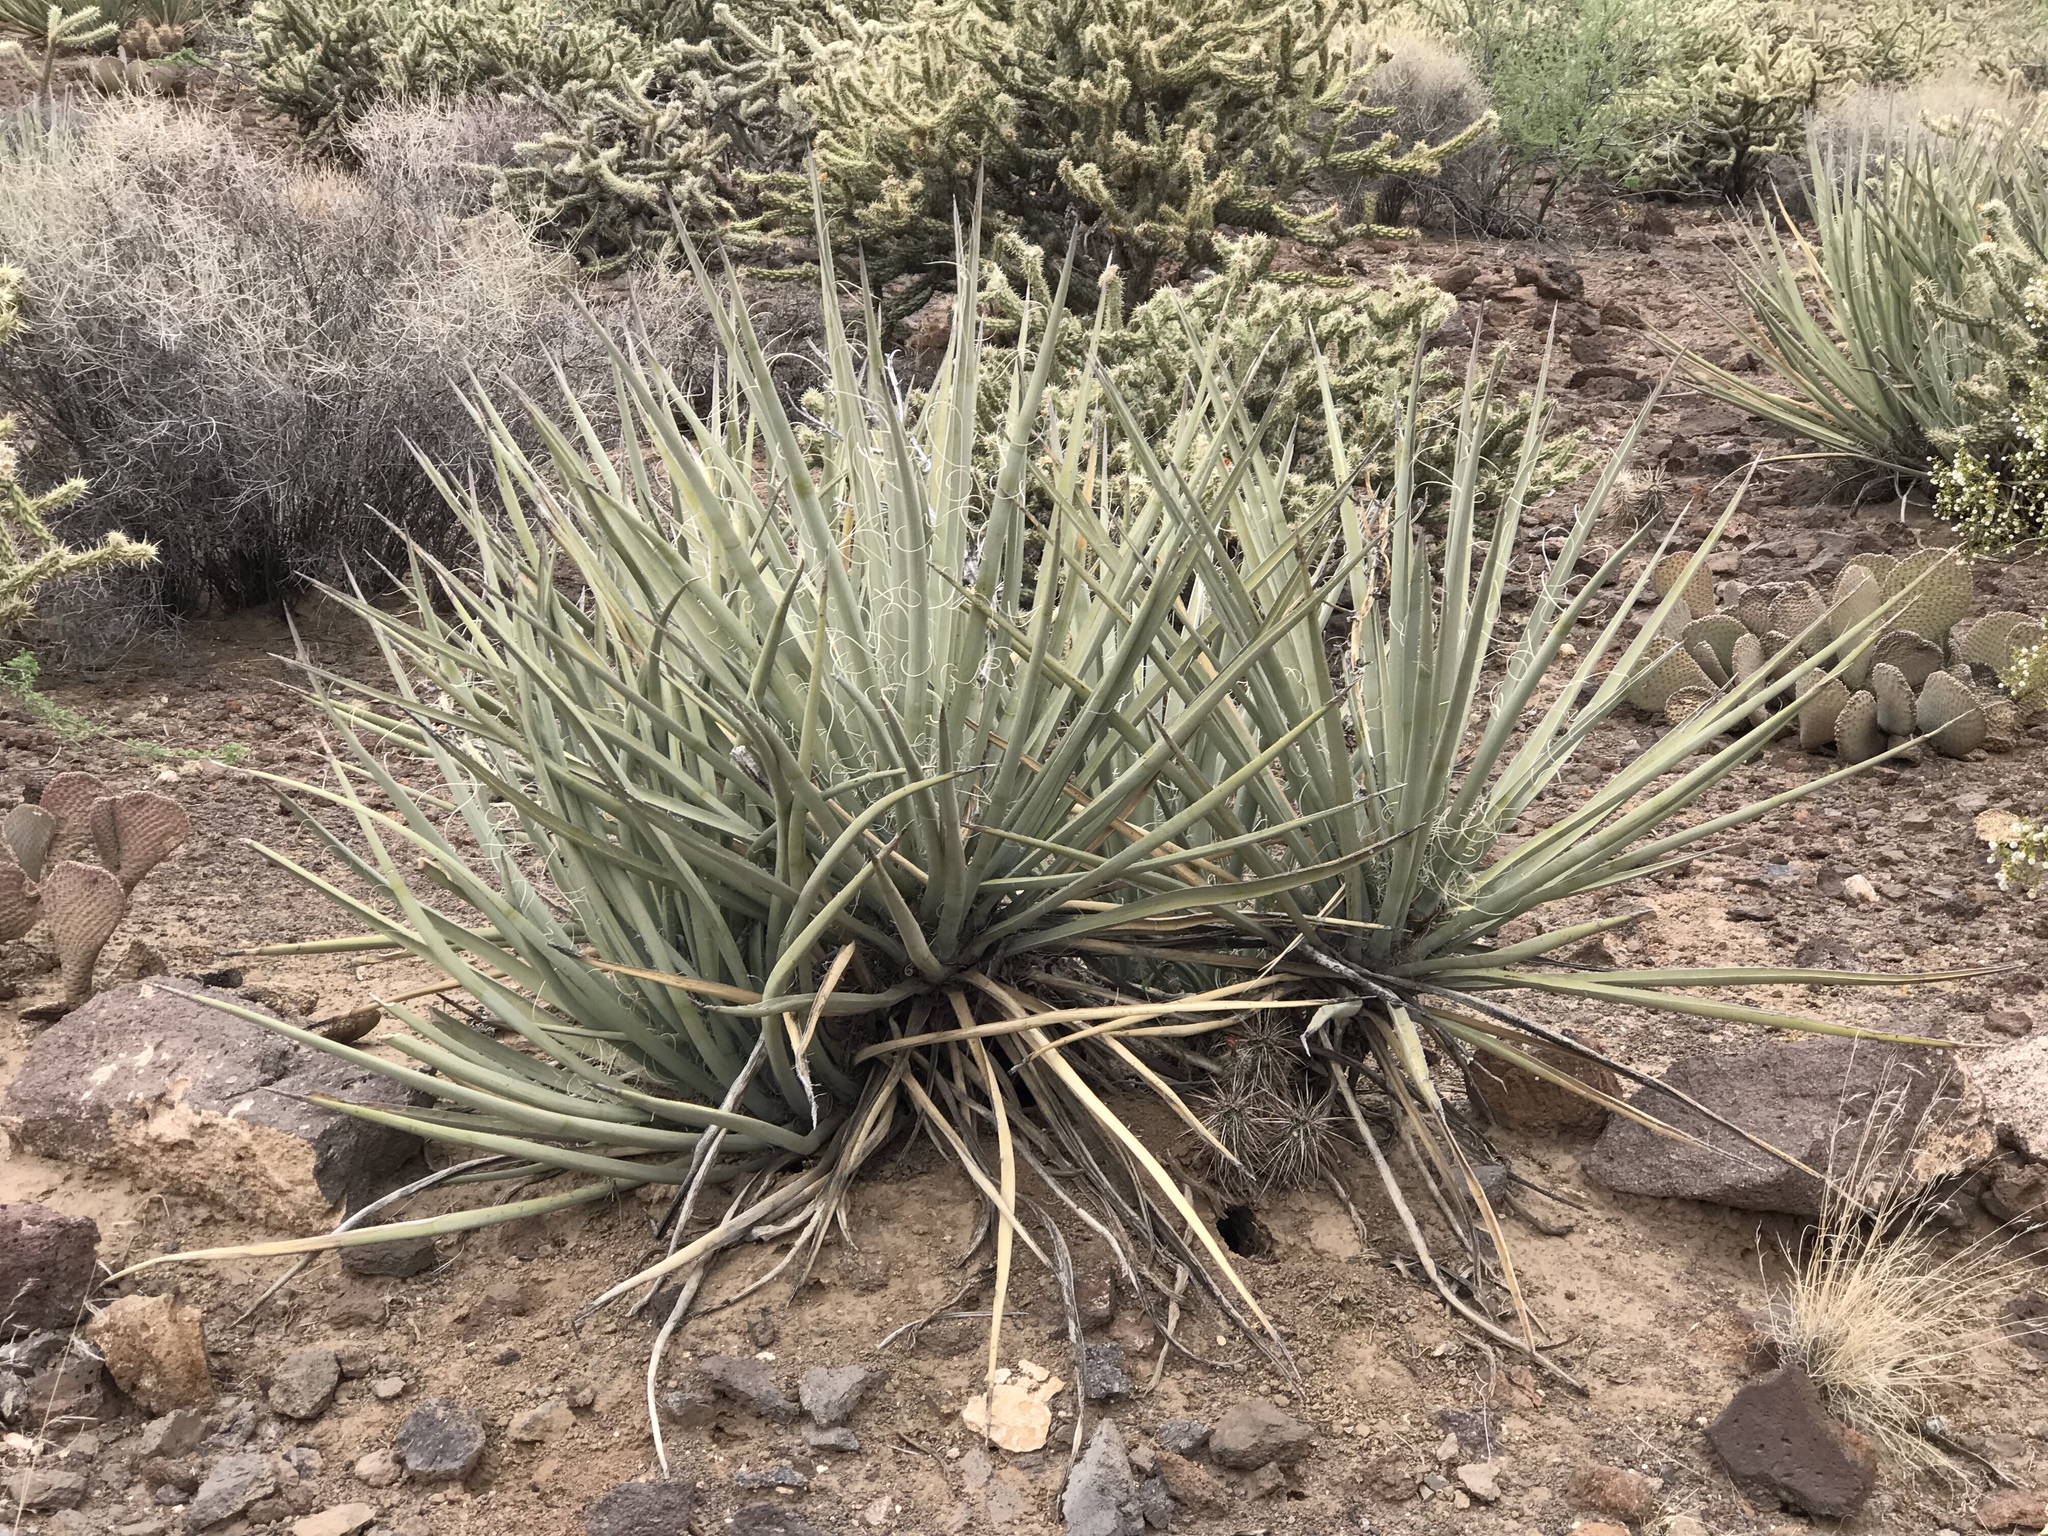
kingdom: Plantae
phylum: Tracheophyta
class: Liliopsida
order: Asparagales
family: Asparagaceae
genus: Yucca
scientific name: Yucca baccata
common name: Banana yucca
